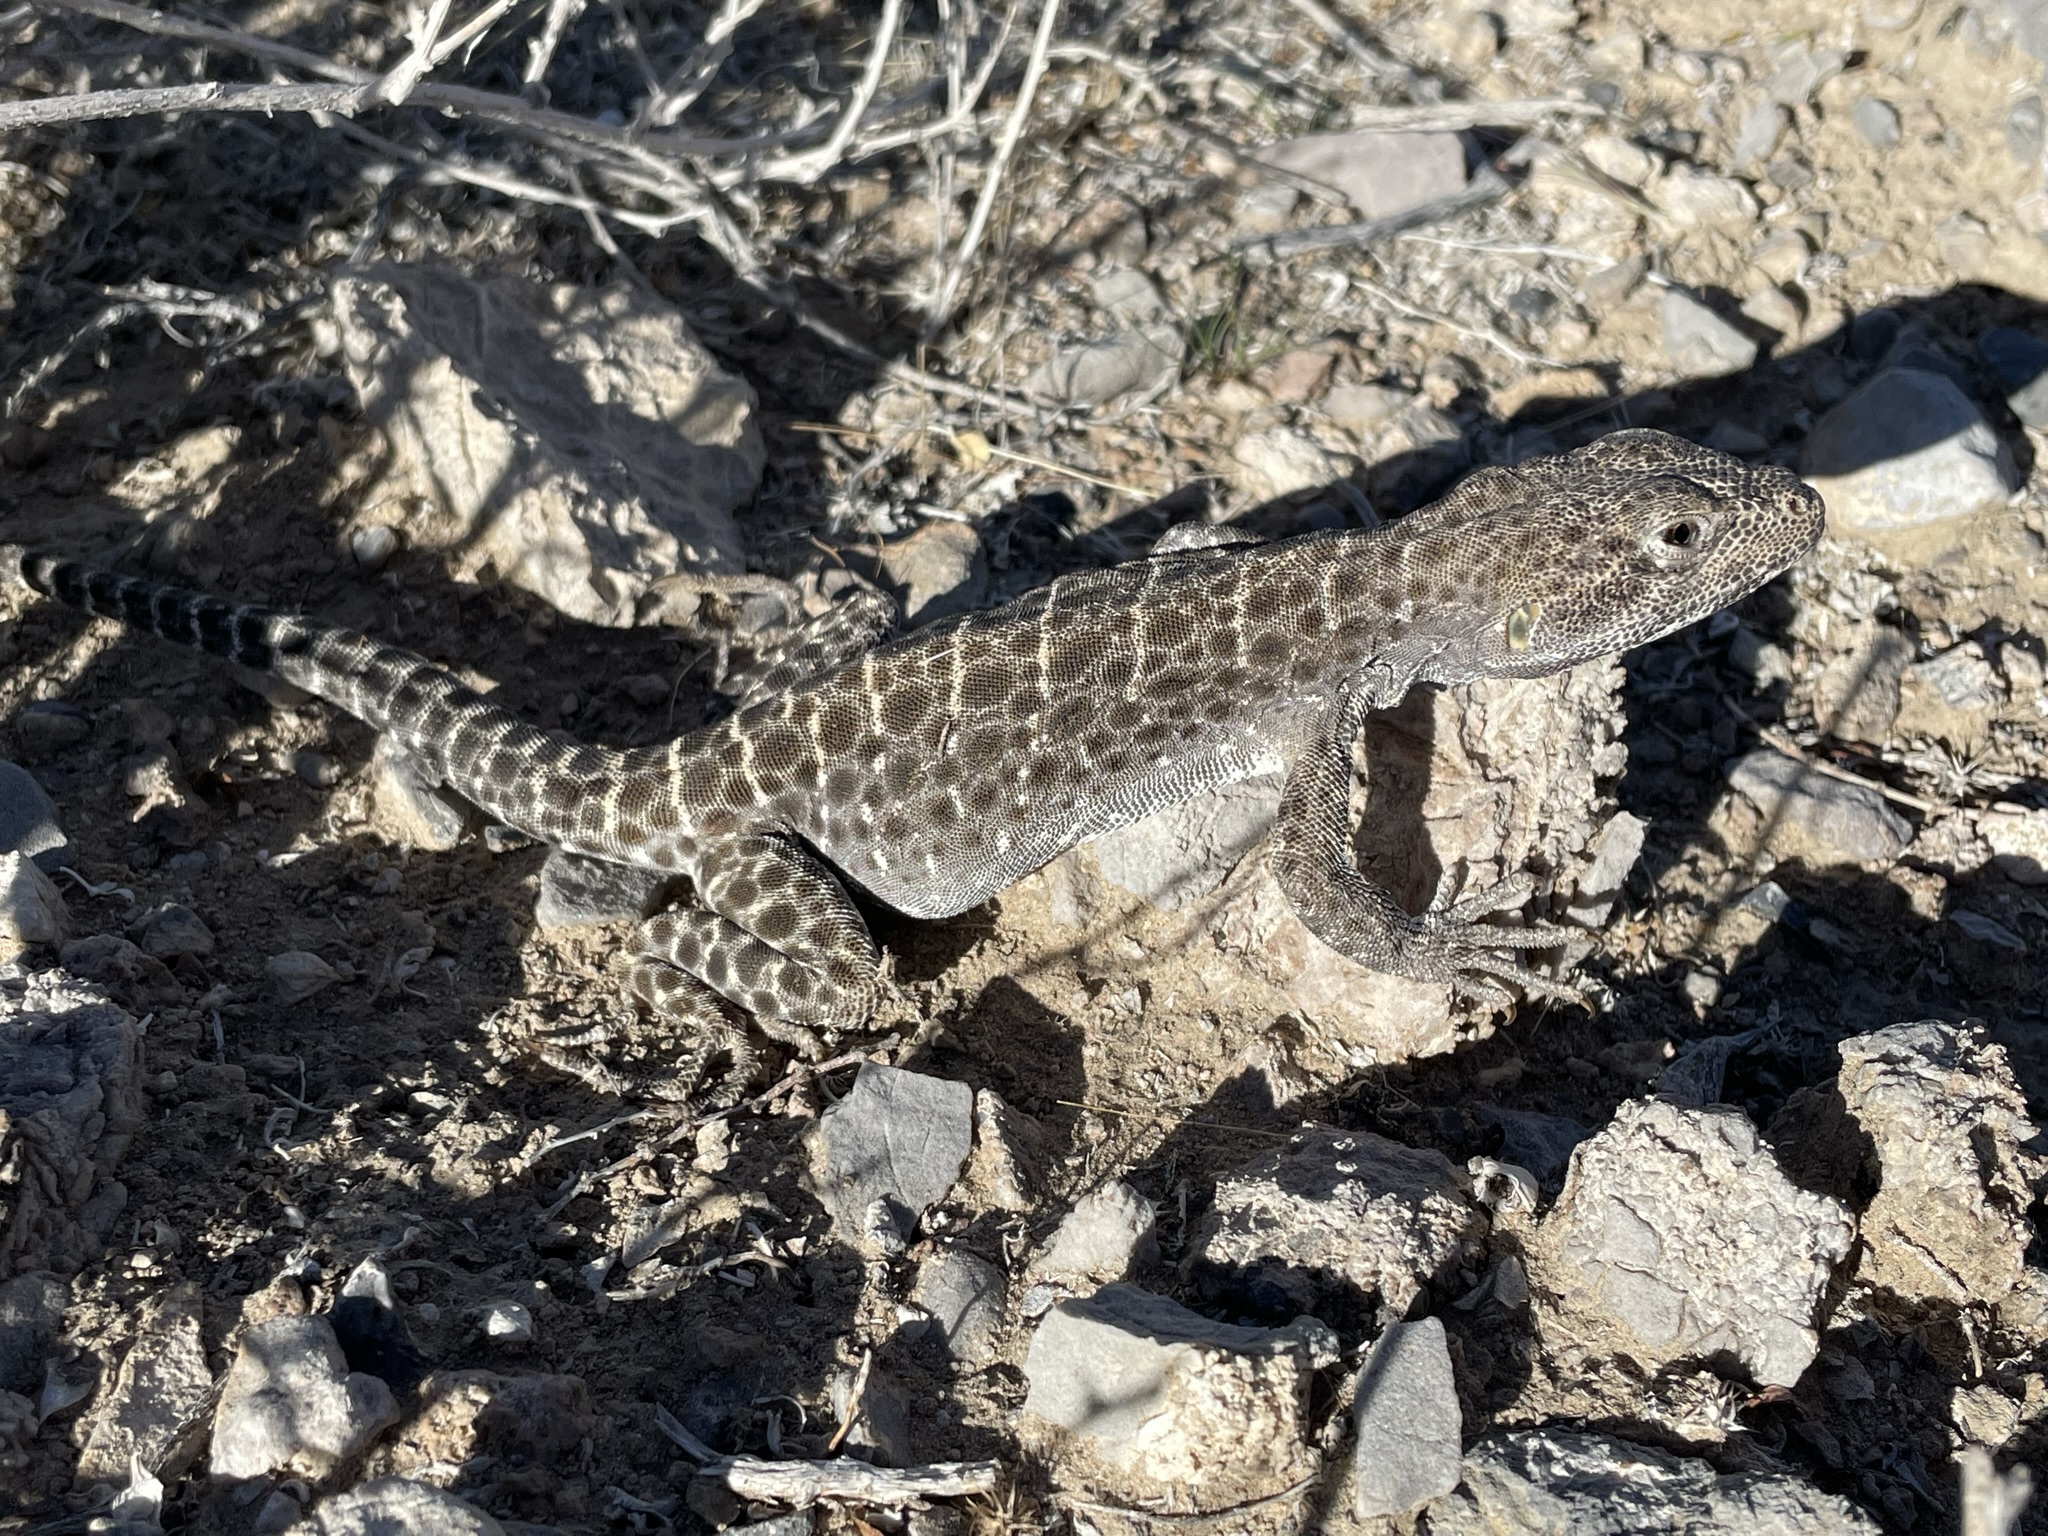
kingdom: Animalia
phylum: Chordata
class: Squamata
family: Crotaphytidae
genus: Gambelia
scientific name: Gambelia wislizenii
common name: Longnose leopard lizard
